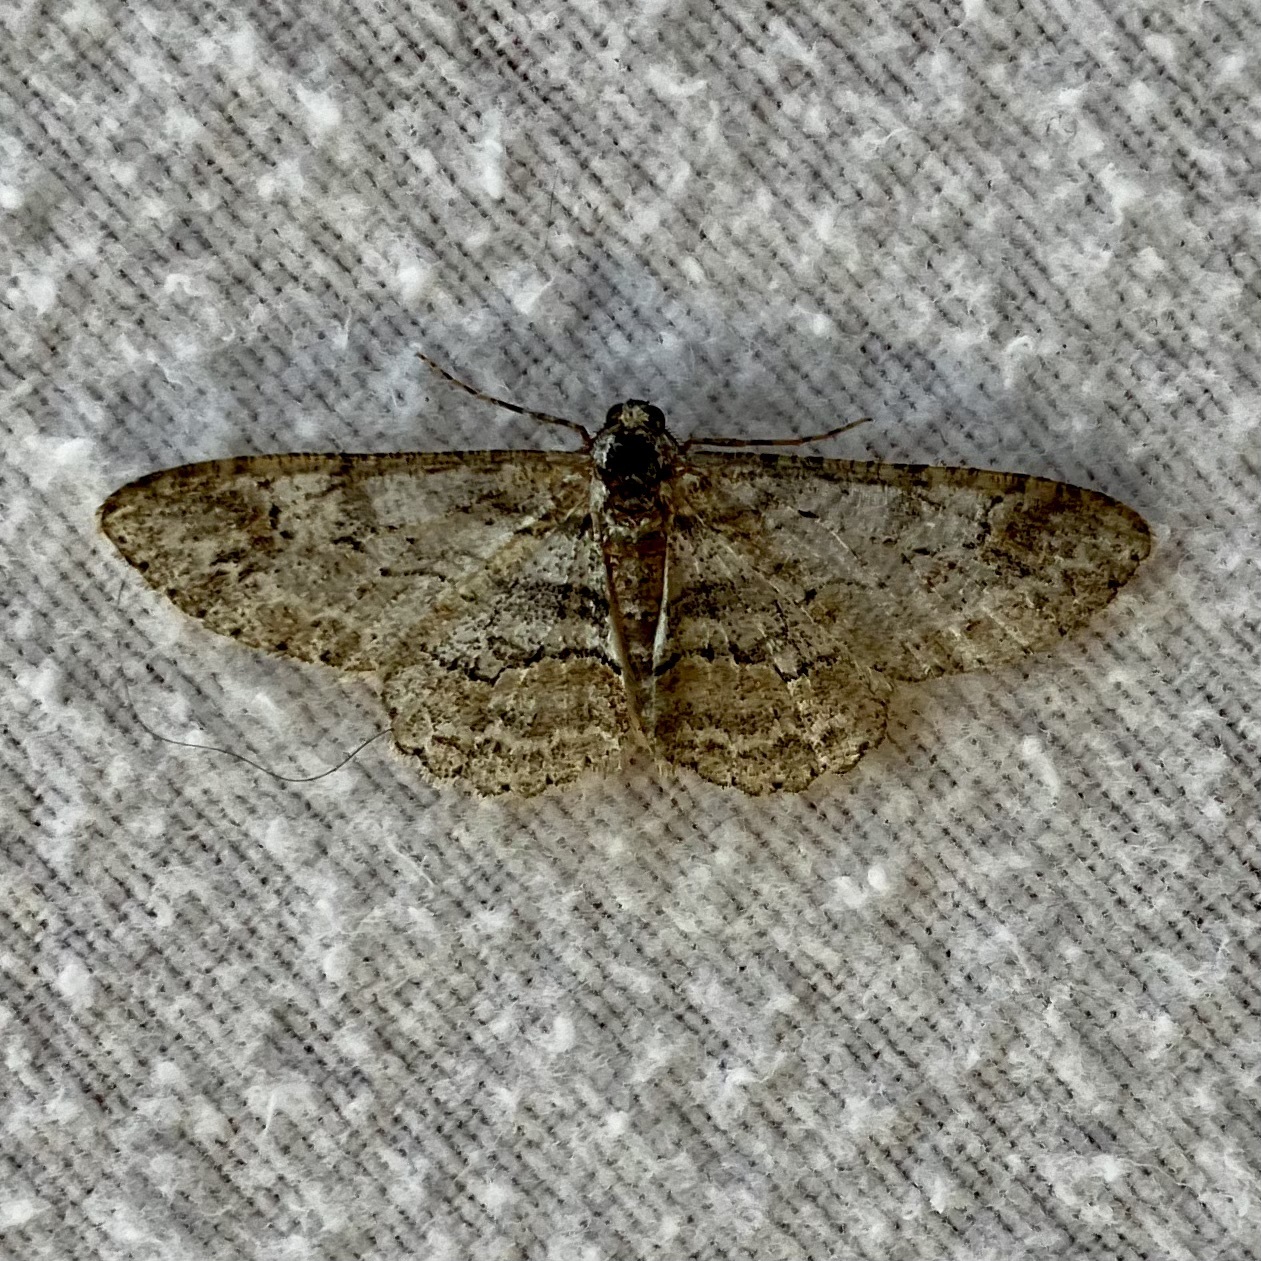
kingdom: Animalia
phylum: Arthropoda
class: Insecta
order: Lepidoptera
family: Geometridae
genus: Iridopsis
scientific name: Iridopsis emasculatum
